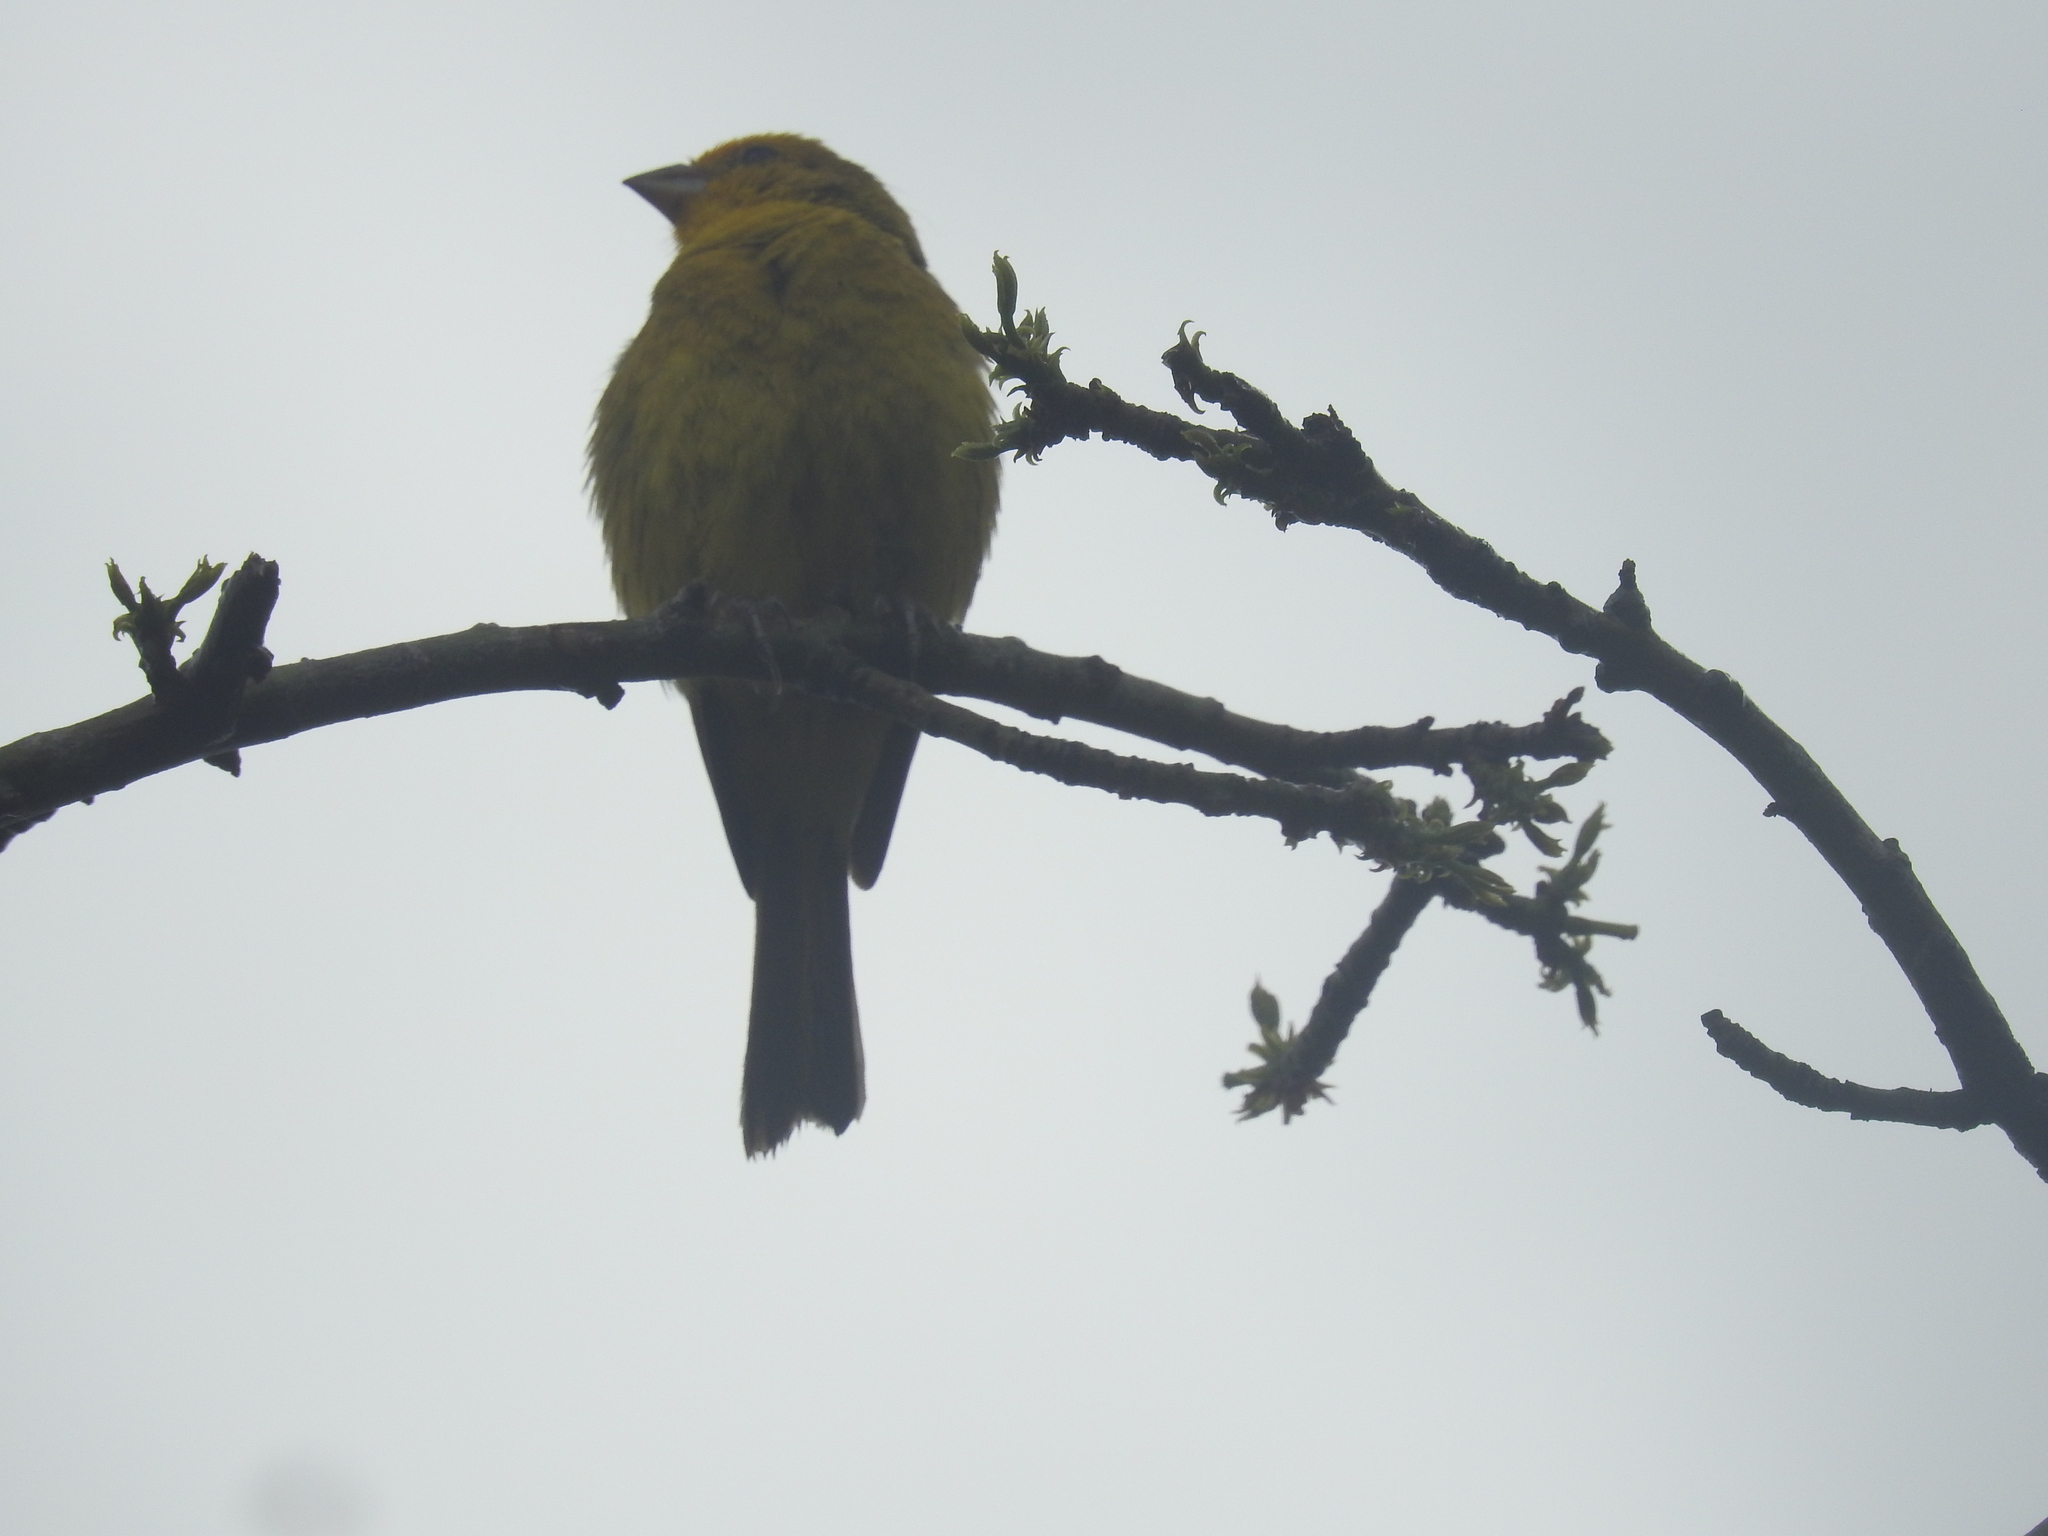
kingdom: Animalia
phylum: Chordata
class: Aves
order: Passeriformes
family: Thraupidae
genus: Sicalis
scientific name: Sicalis flaveola
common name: Saffron finch
